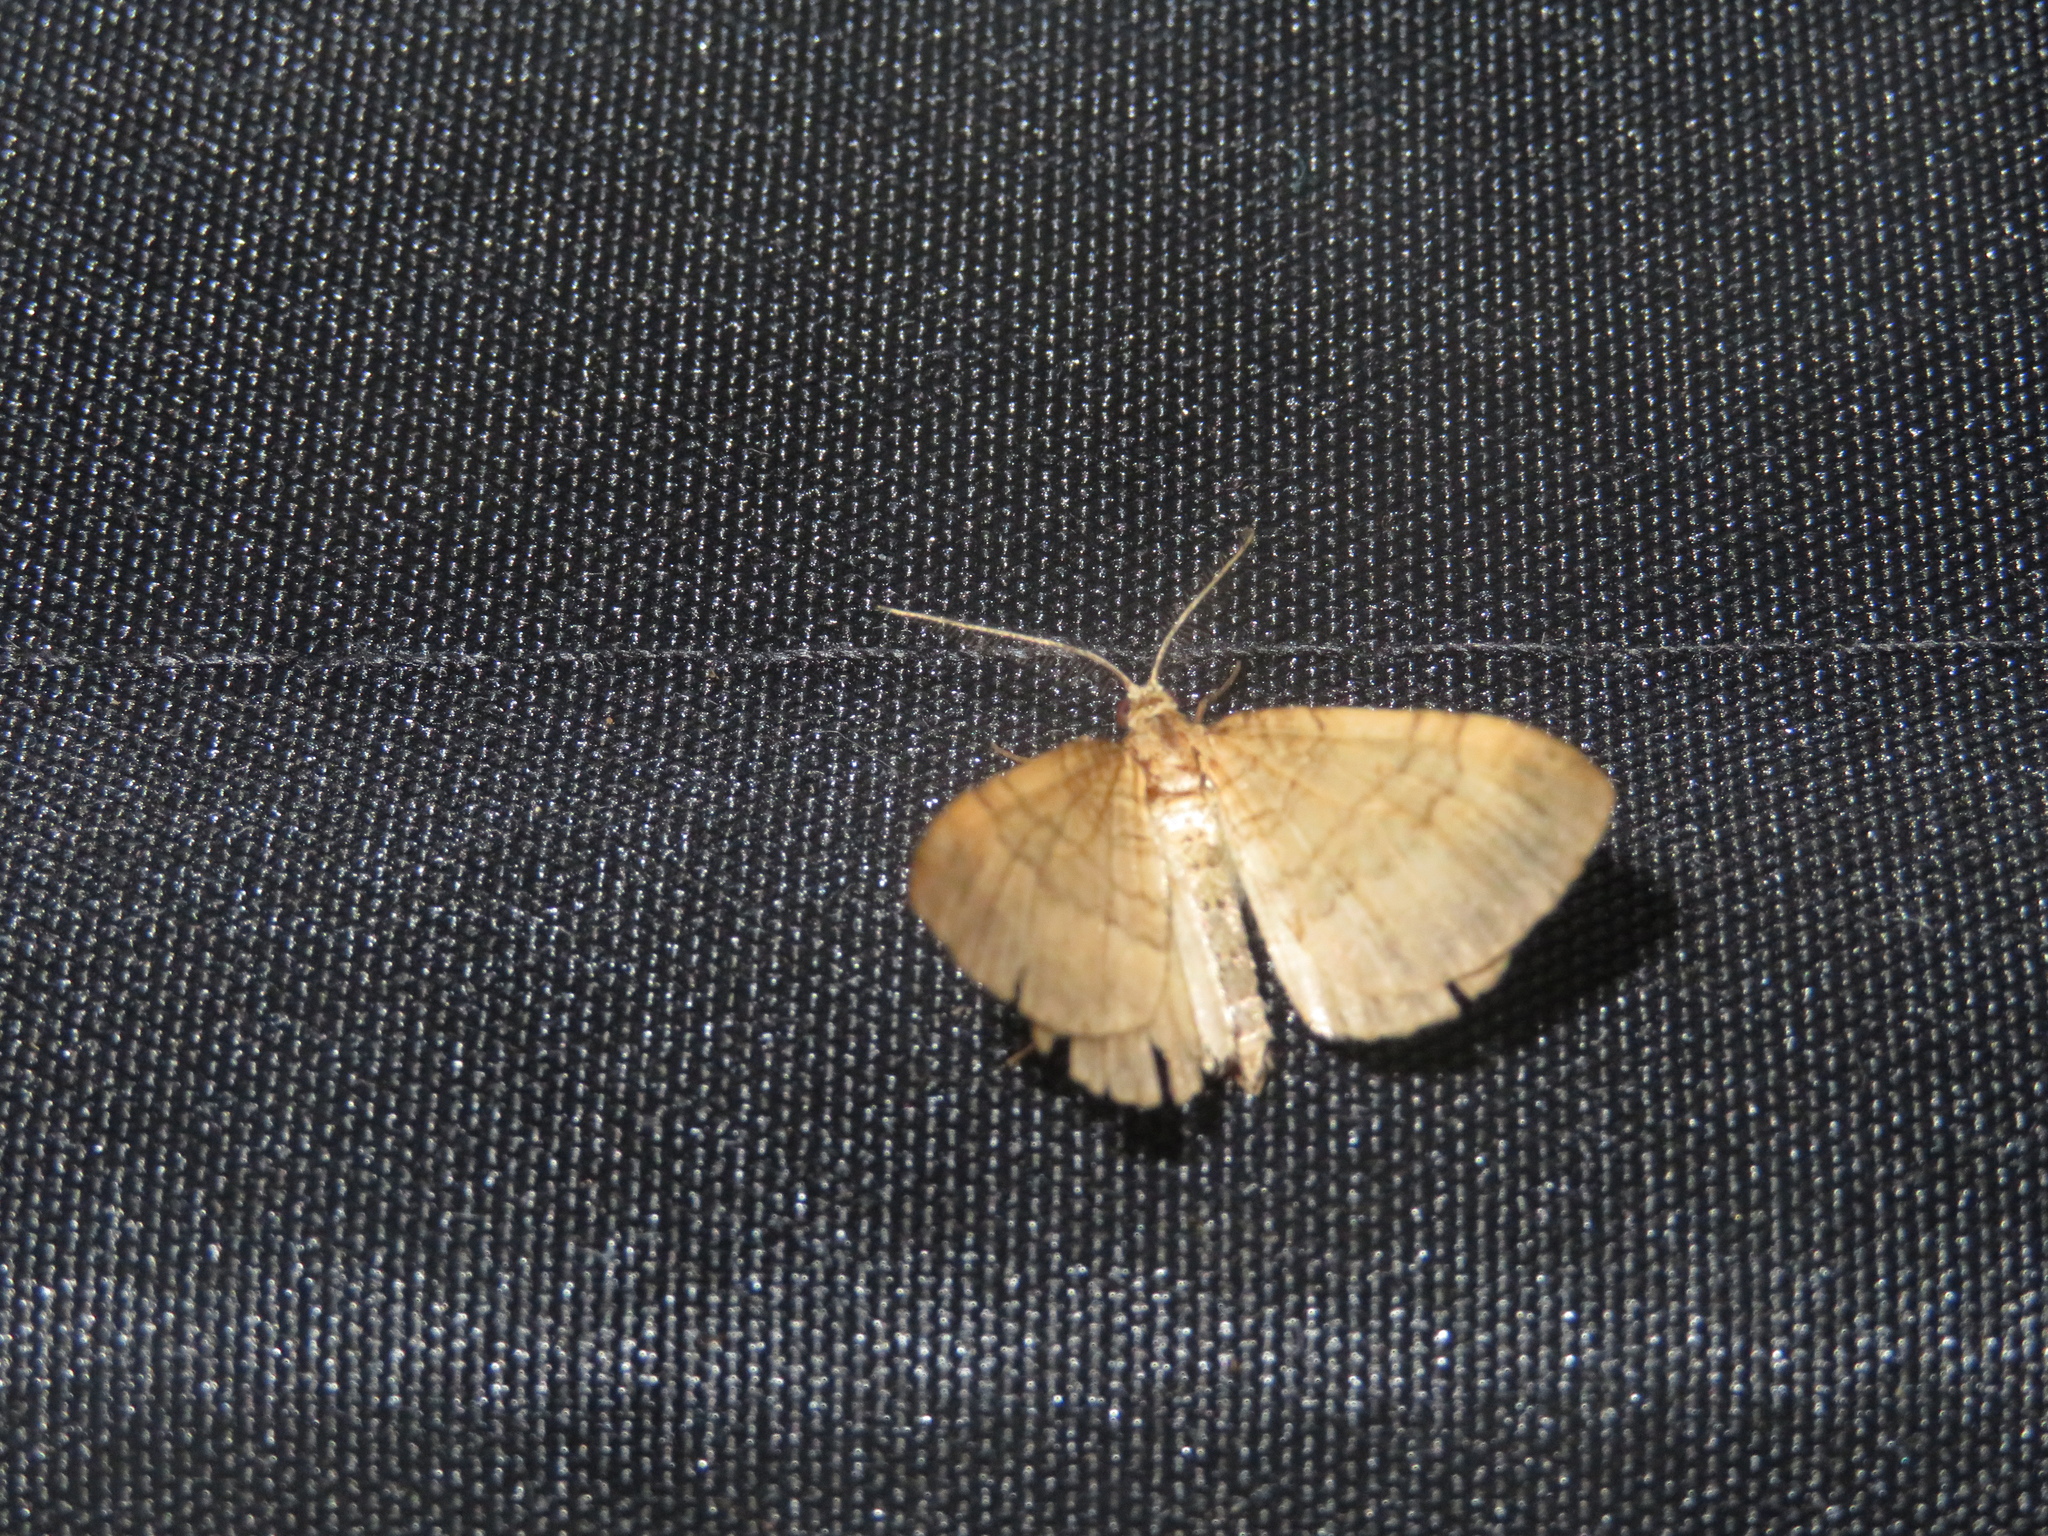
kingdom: Animalia
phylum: Arthropoda
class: Insecta
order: Lepidoptera
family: Geometridae
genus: Asaphodes
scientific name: Asaphodes aegrota
